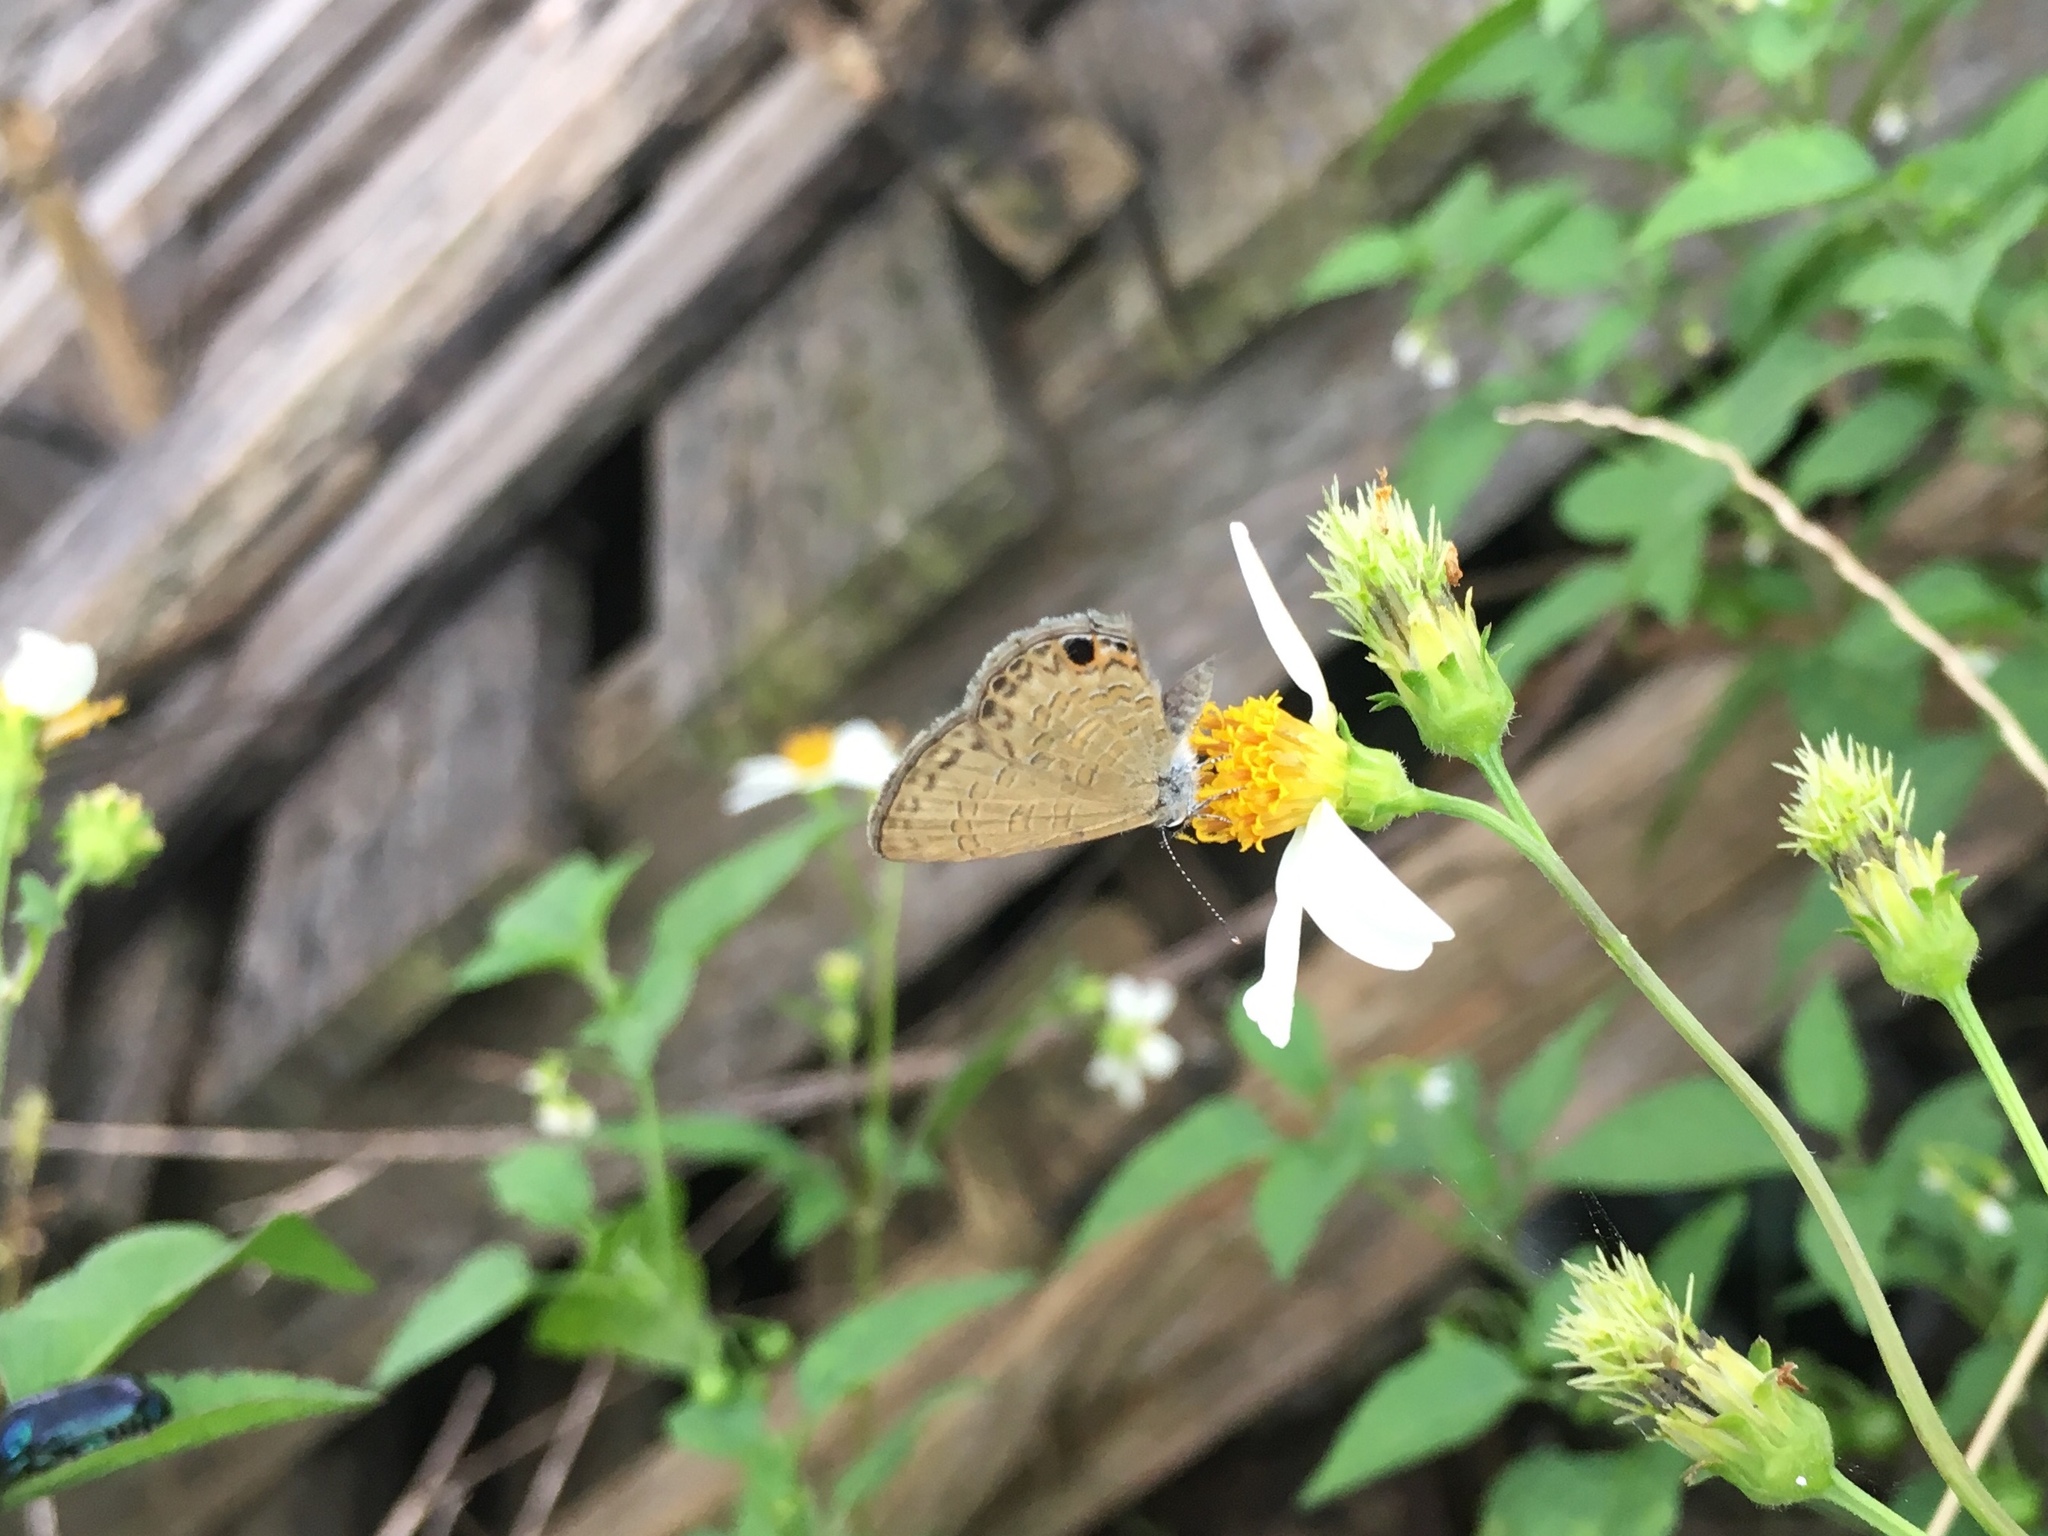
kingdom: Animalia
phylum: Arthropoda
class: Insecta
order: Lepidoptera
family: Lycaenidae
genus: Prosotas
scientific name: Prosotas dubiosa
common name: Tailless lineblue
